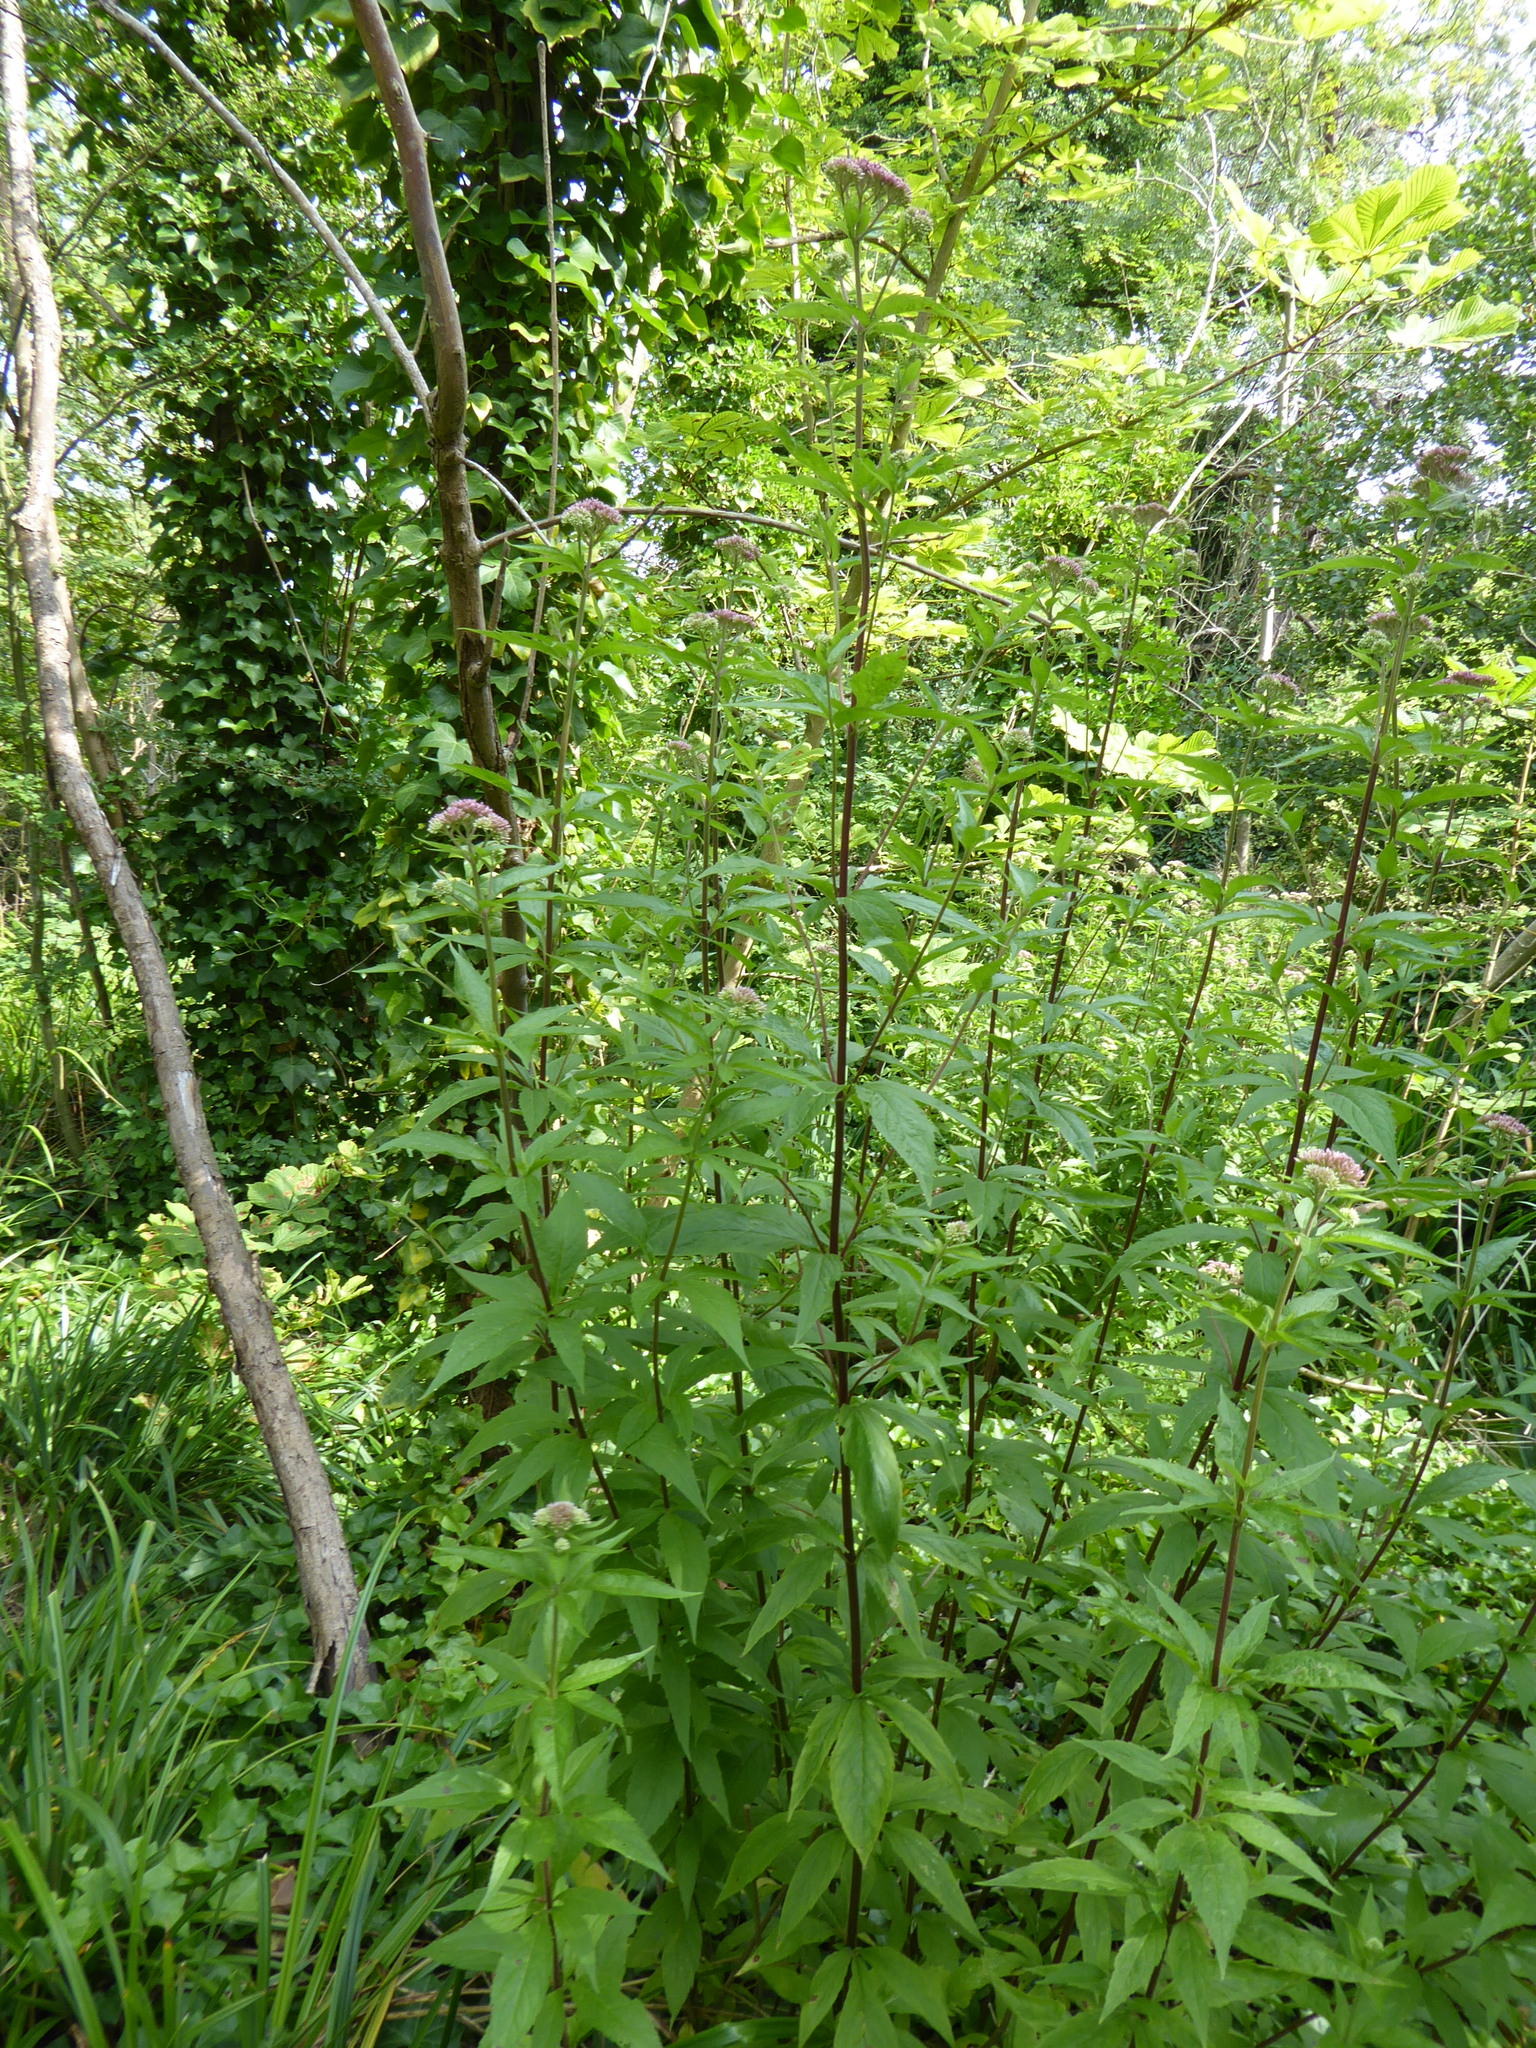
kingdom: Plantae
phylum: Tracheophyta
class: Magnoliopsida
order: Asterales
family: Asteraceae
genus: Eupatorium
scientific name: Eupatorium cannabinum
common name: Hemp-agrimony
